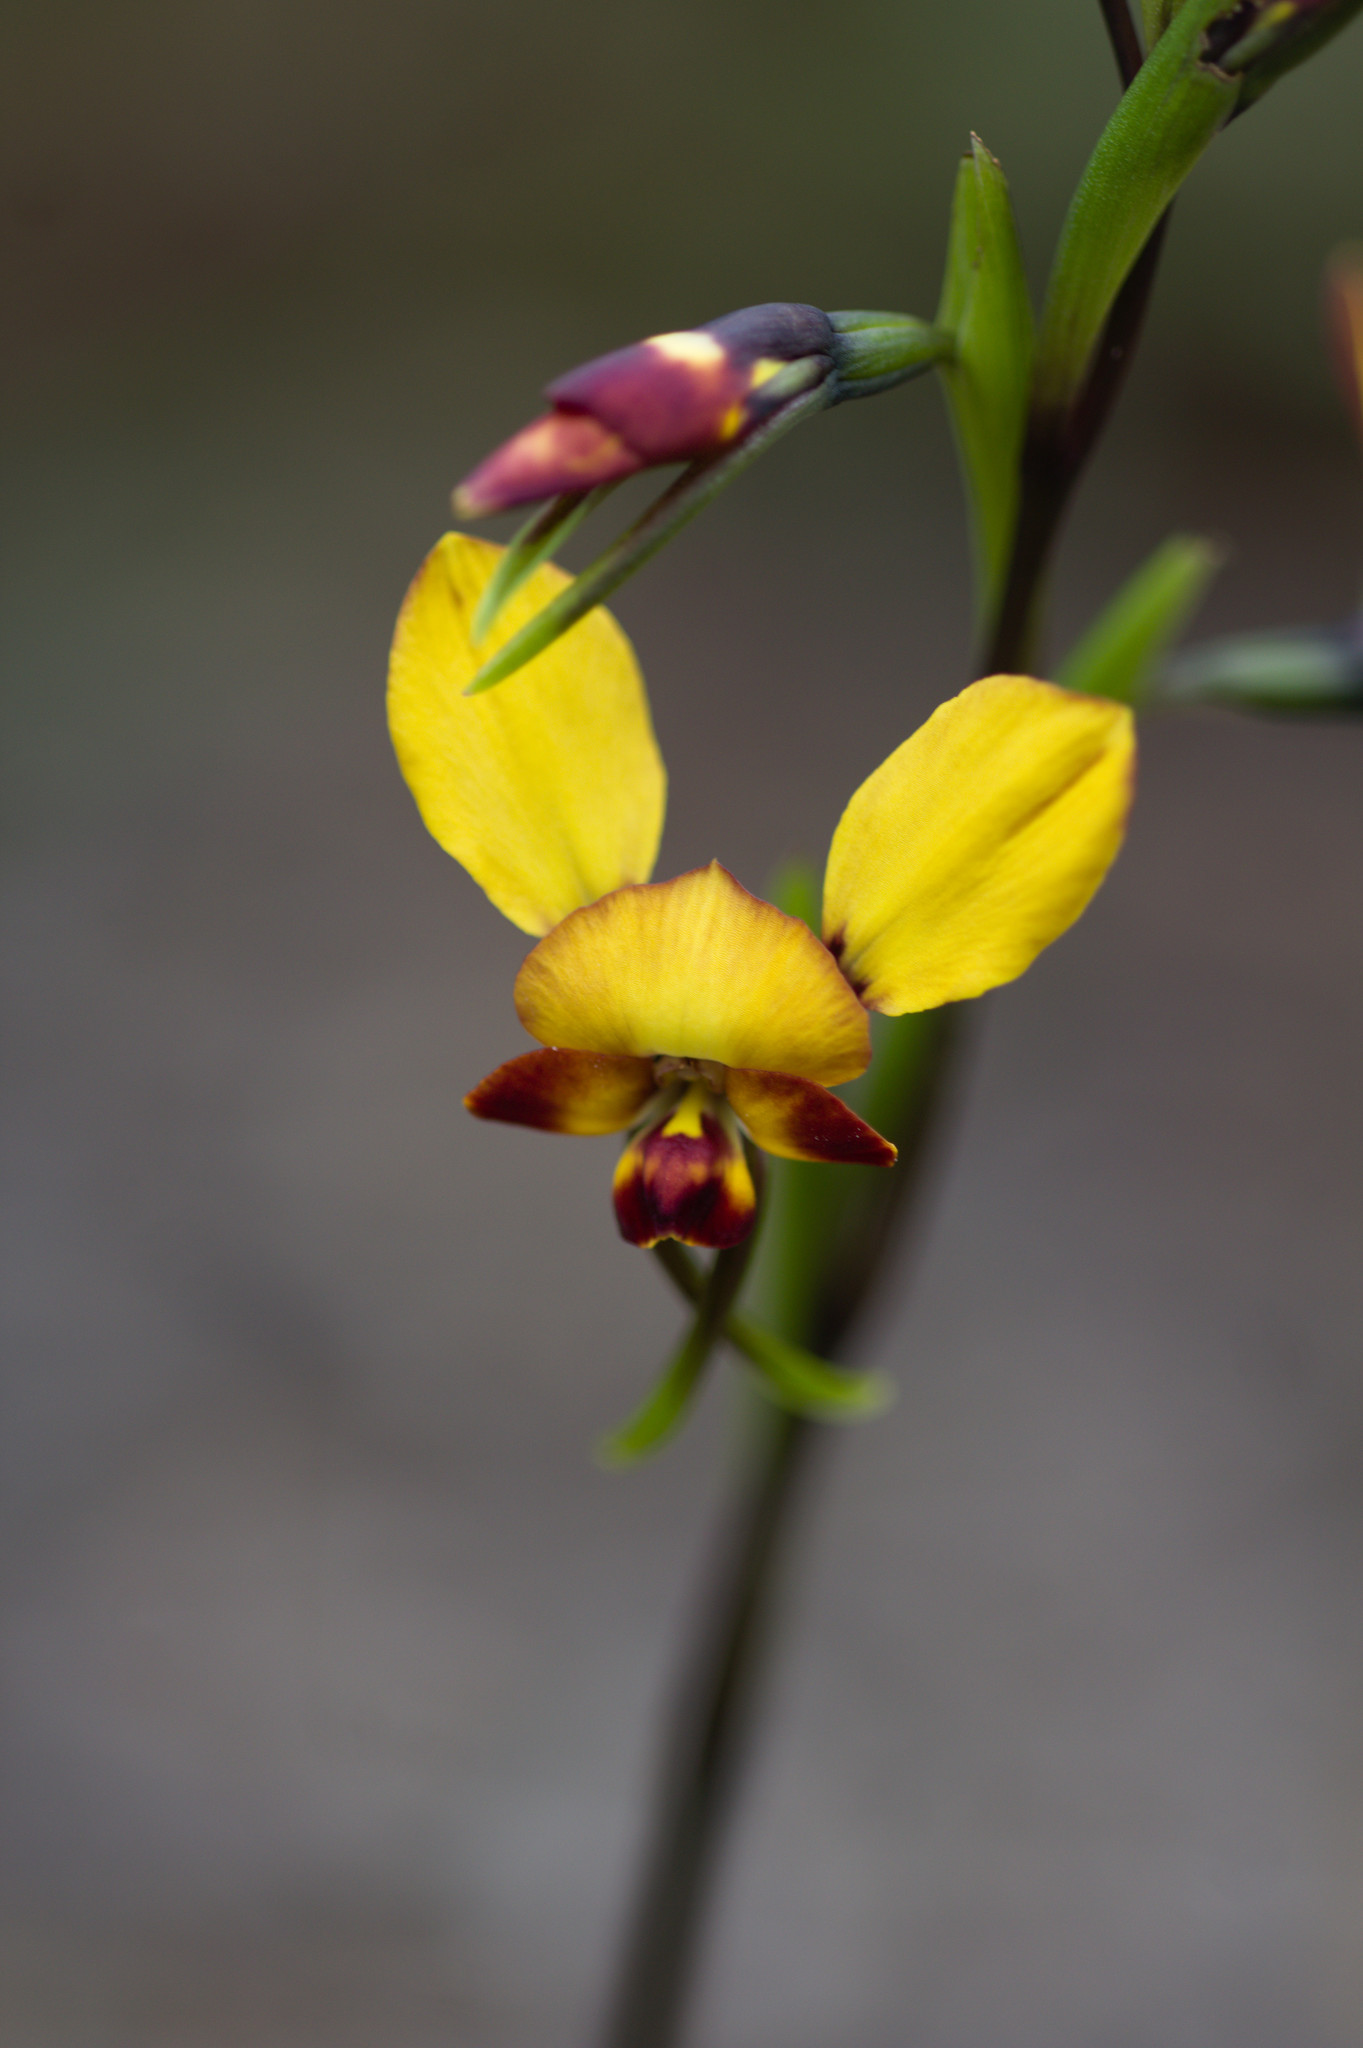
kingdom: Plantae
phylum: Tracheophyta
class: Liliopsida
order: Asparagales
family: Orchidaceae
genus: Diuris
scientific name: Diuris corymbosa
